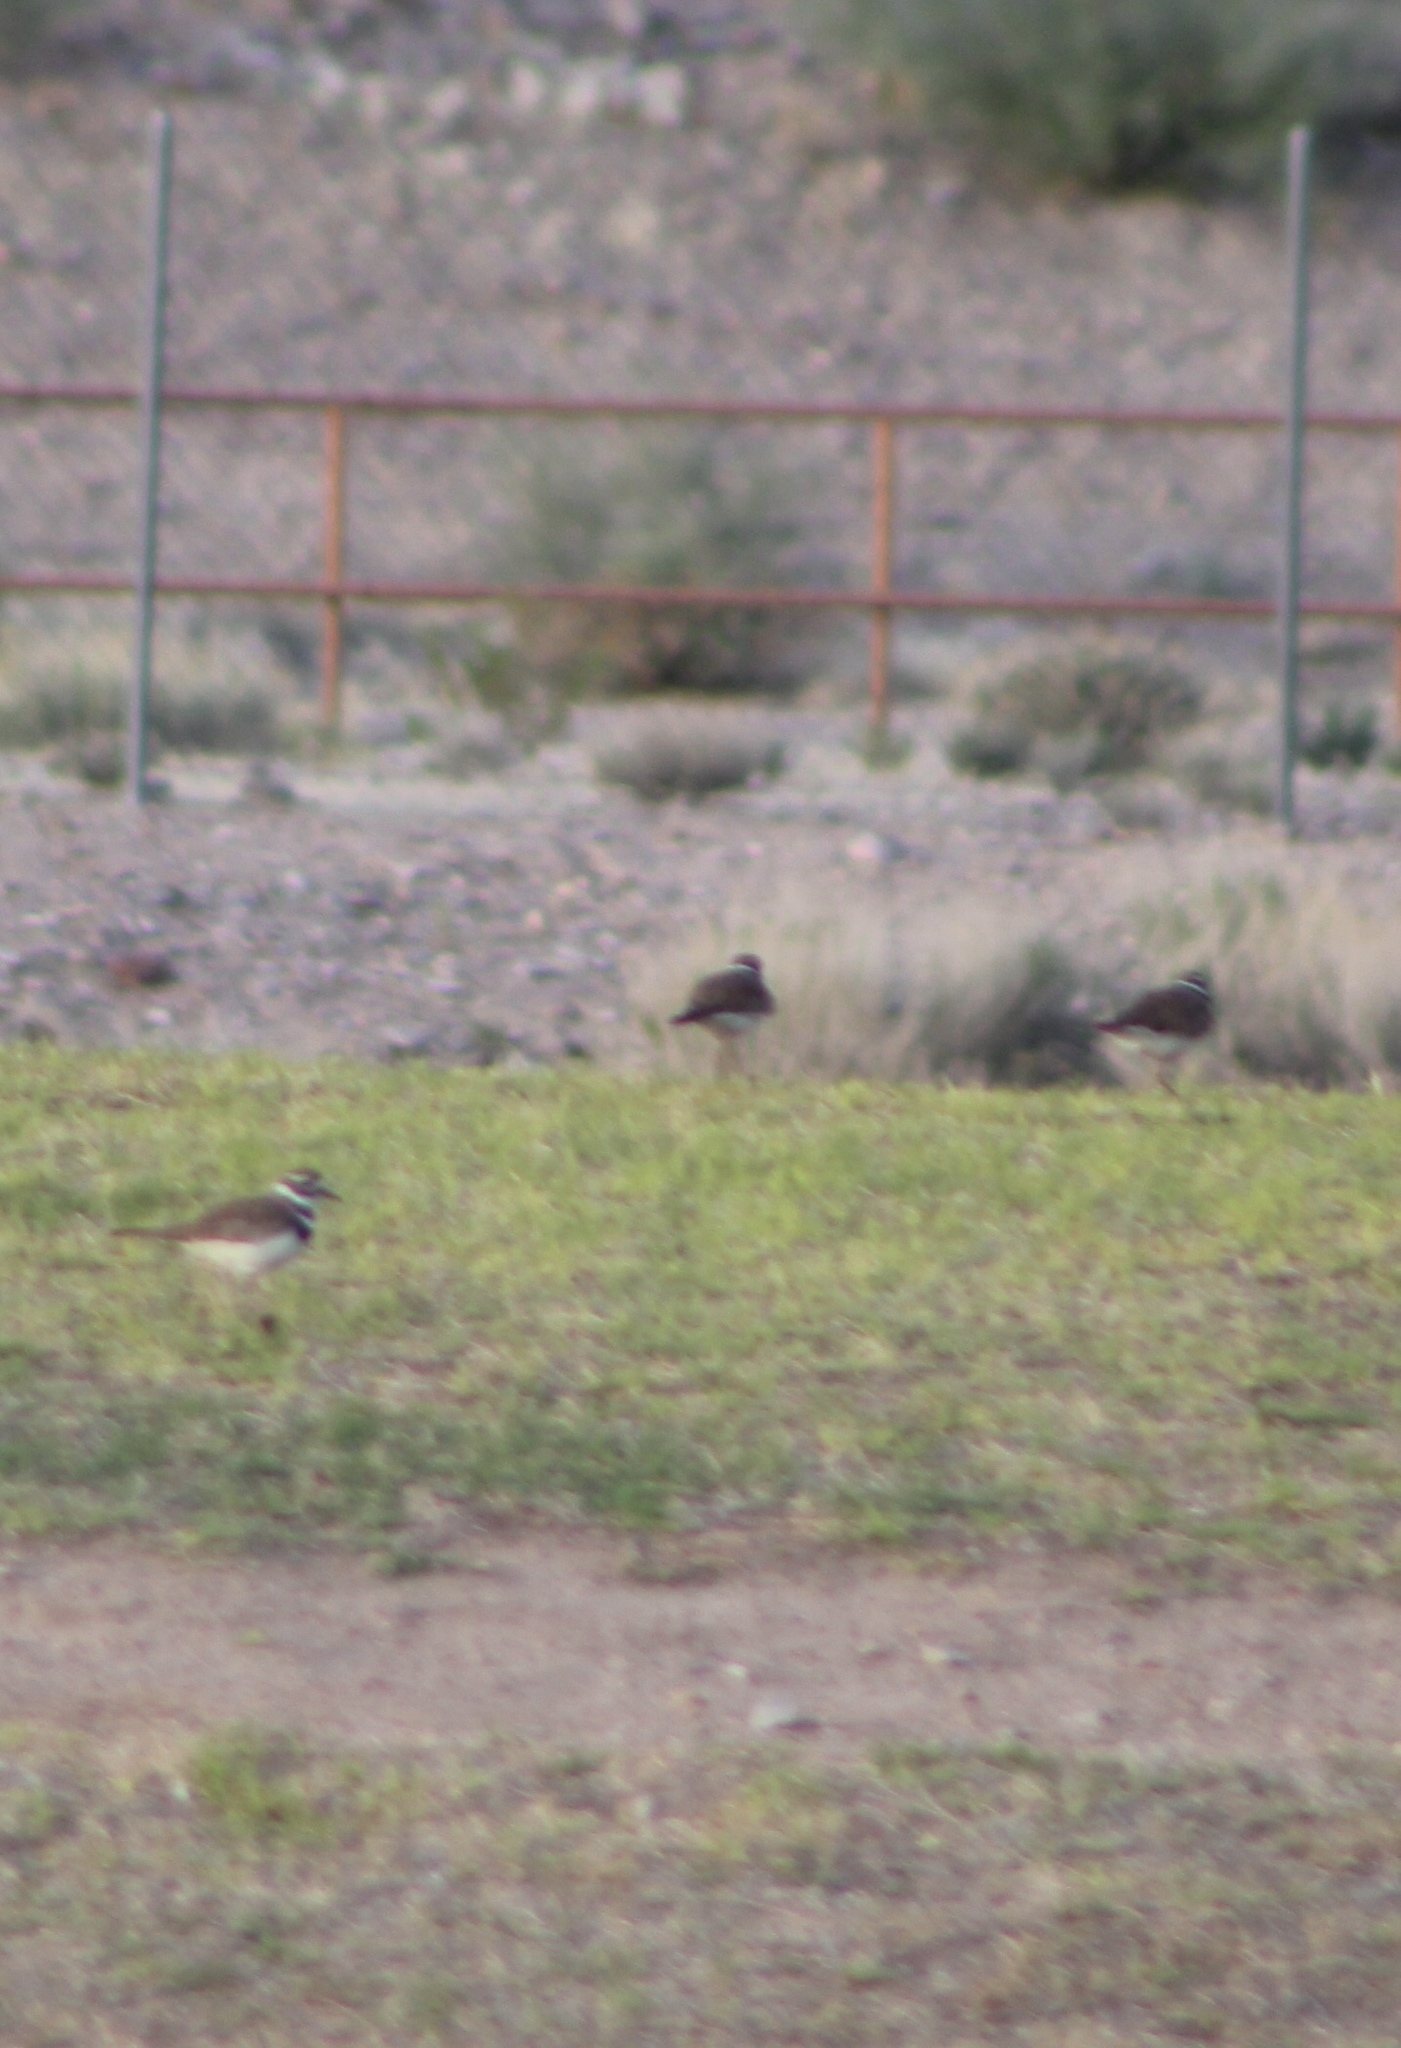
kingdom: Animalia
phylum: Chordata
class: Aves
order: Charadriiformes
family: Charadriidae
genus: Charadrius
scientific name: Charadrius vociferus
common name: Killdeer
